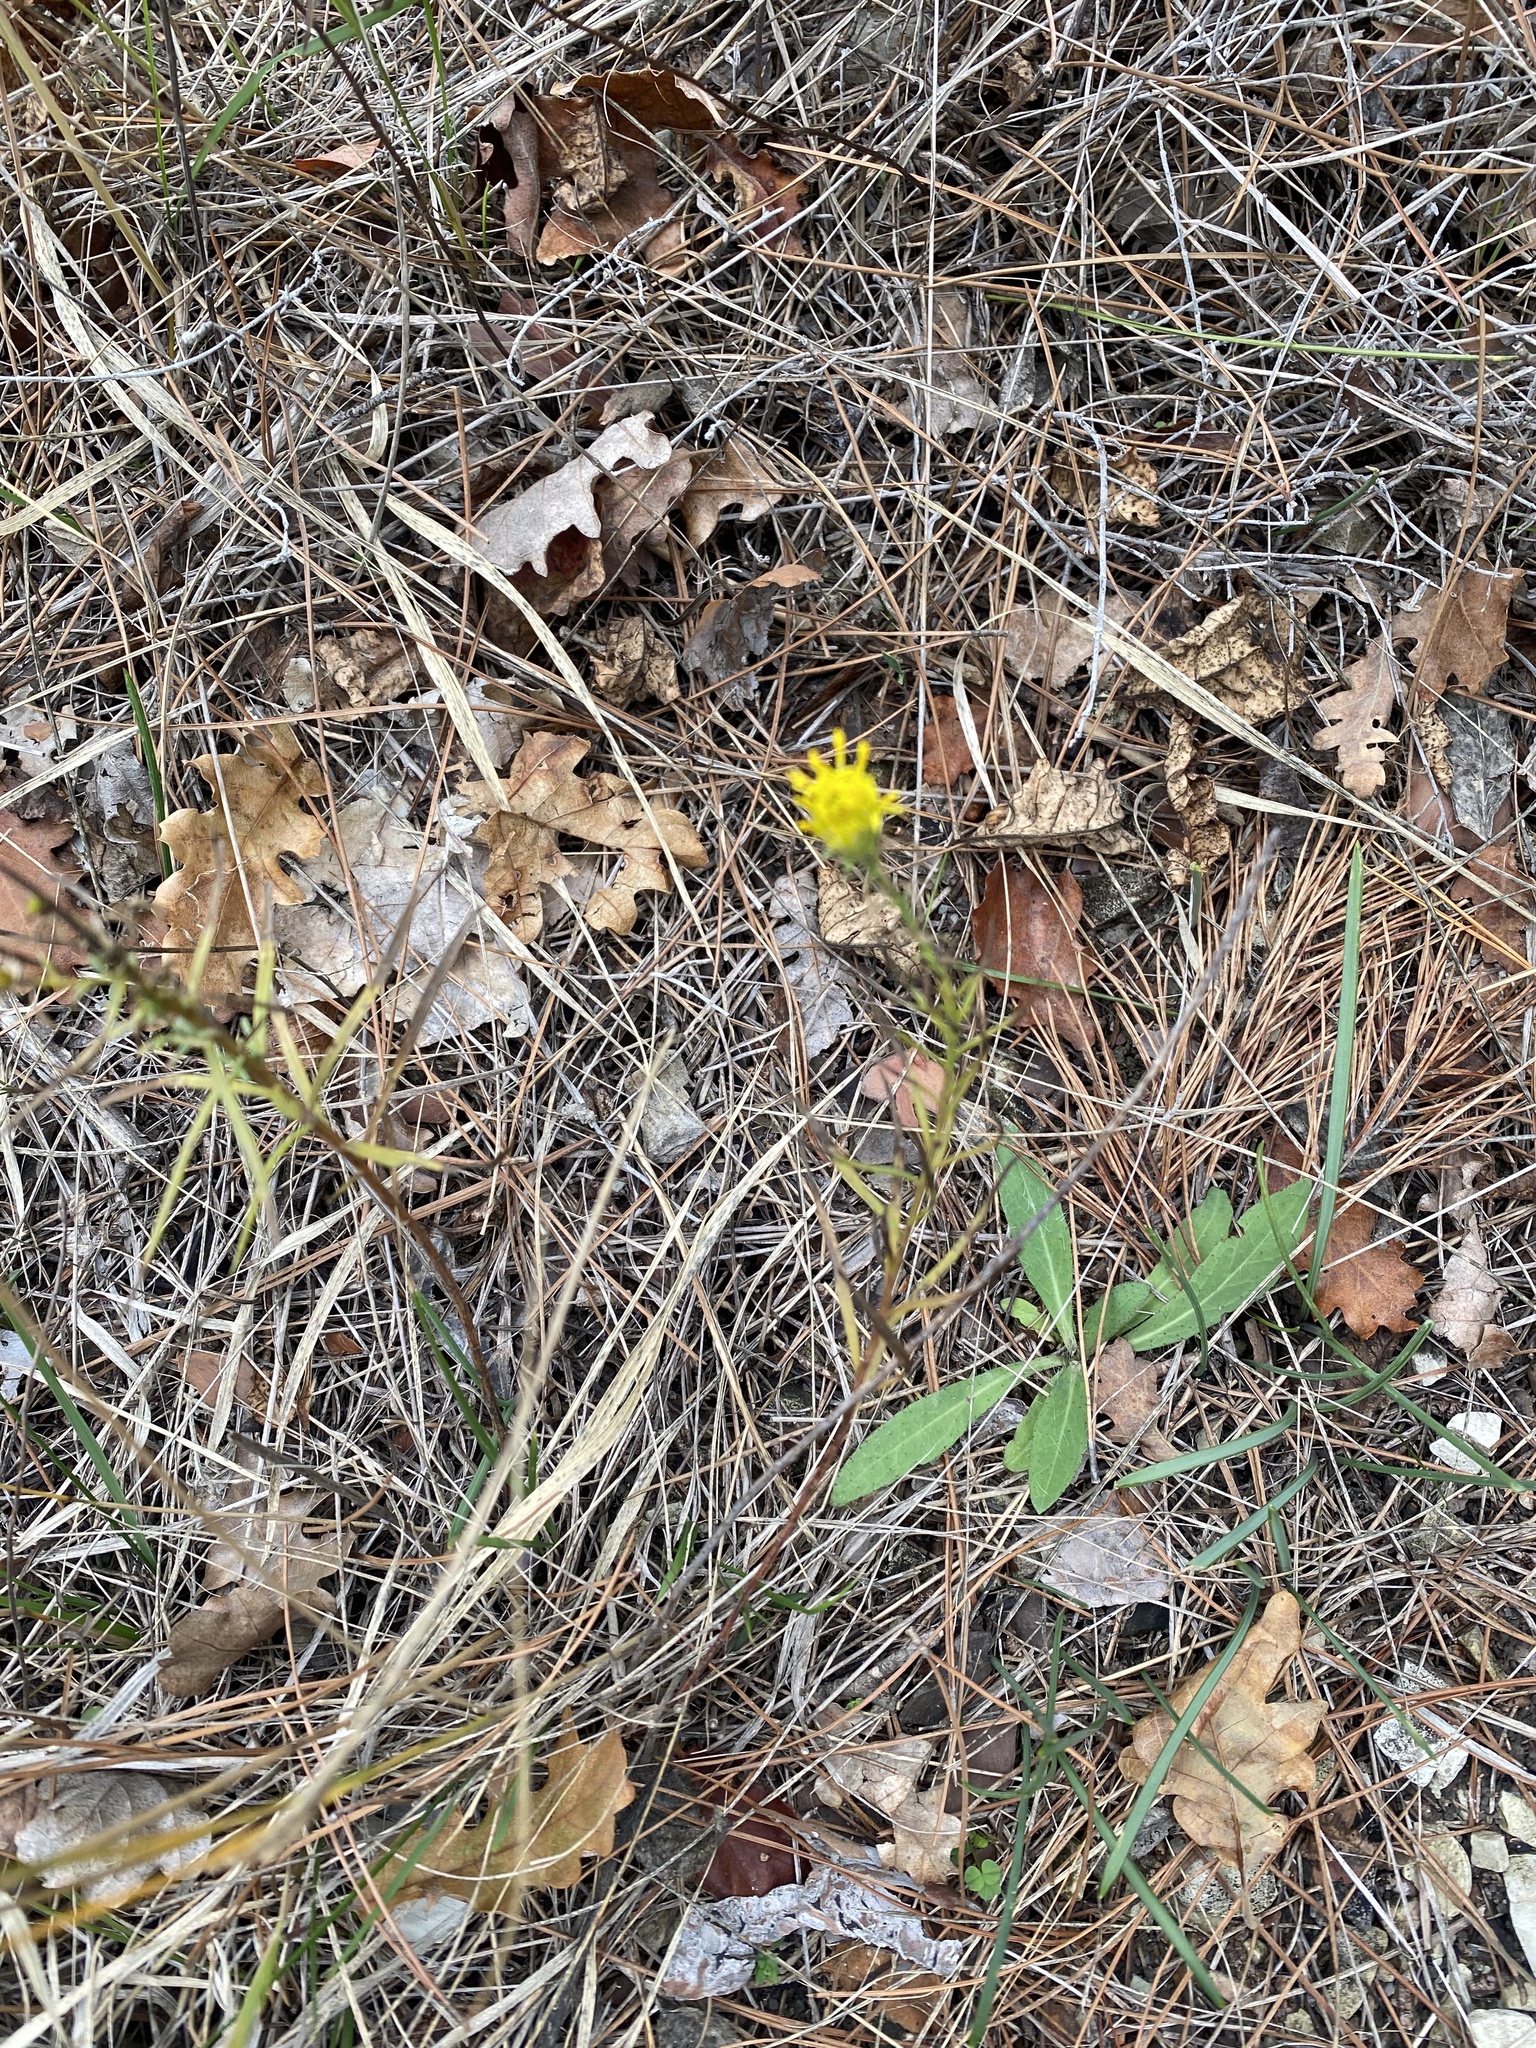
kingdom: Plantae
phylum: Tracheophyta
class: Magnoliopsida
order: Asterales
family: Asteraceae
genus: Galatella
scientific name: Galatella linosyris
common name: Goldilocks aster
